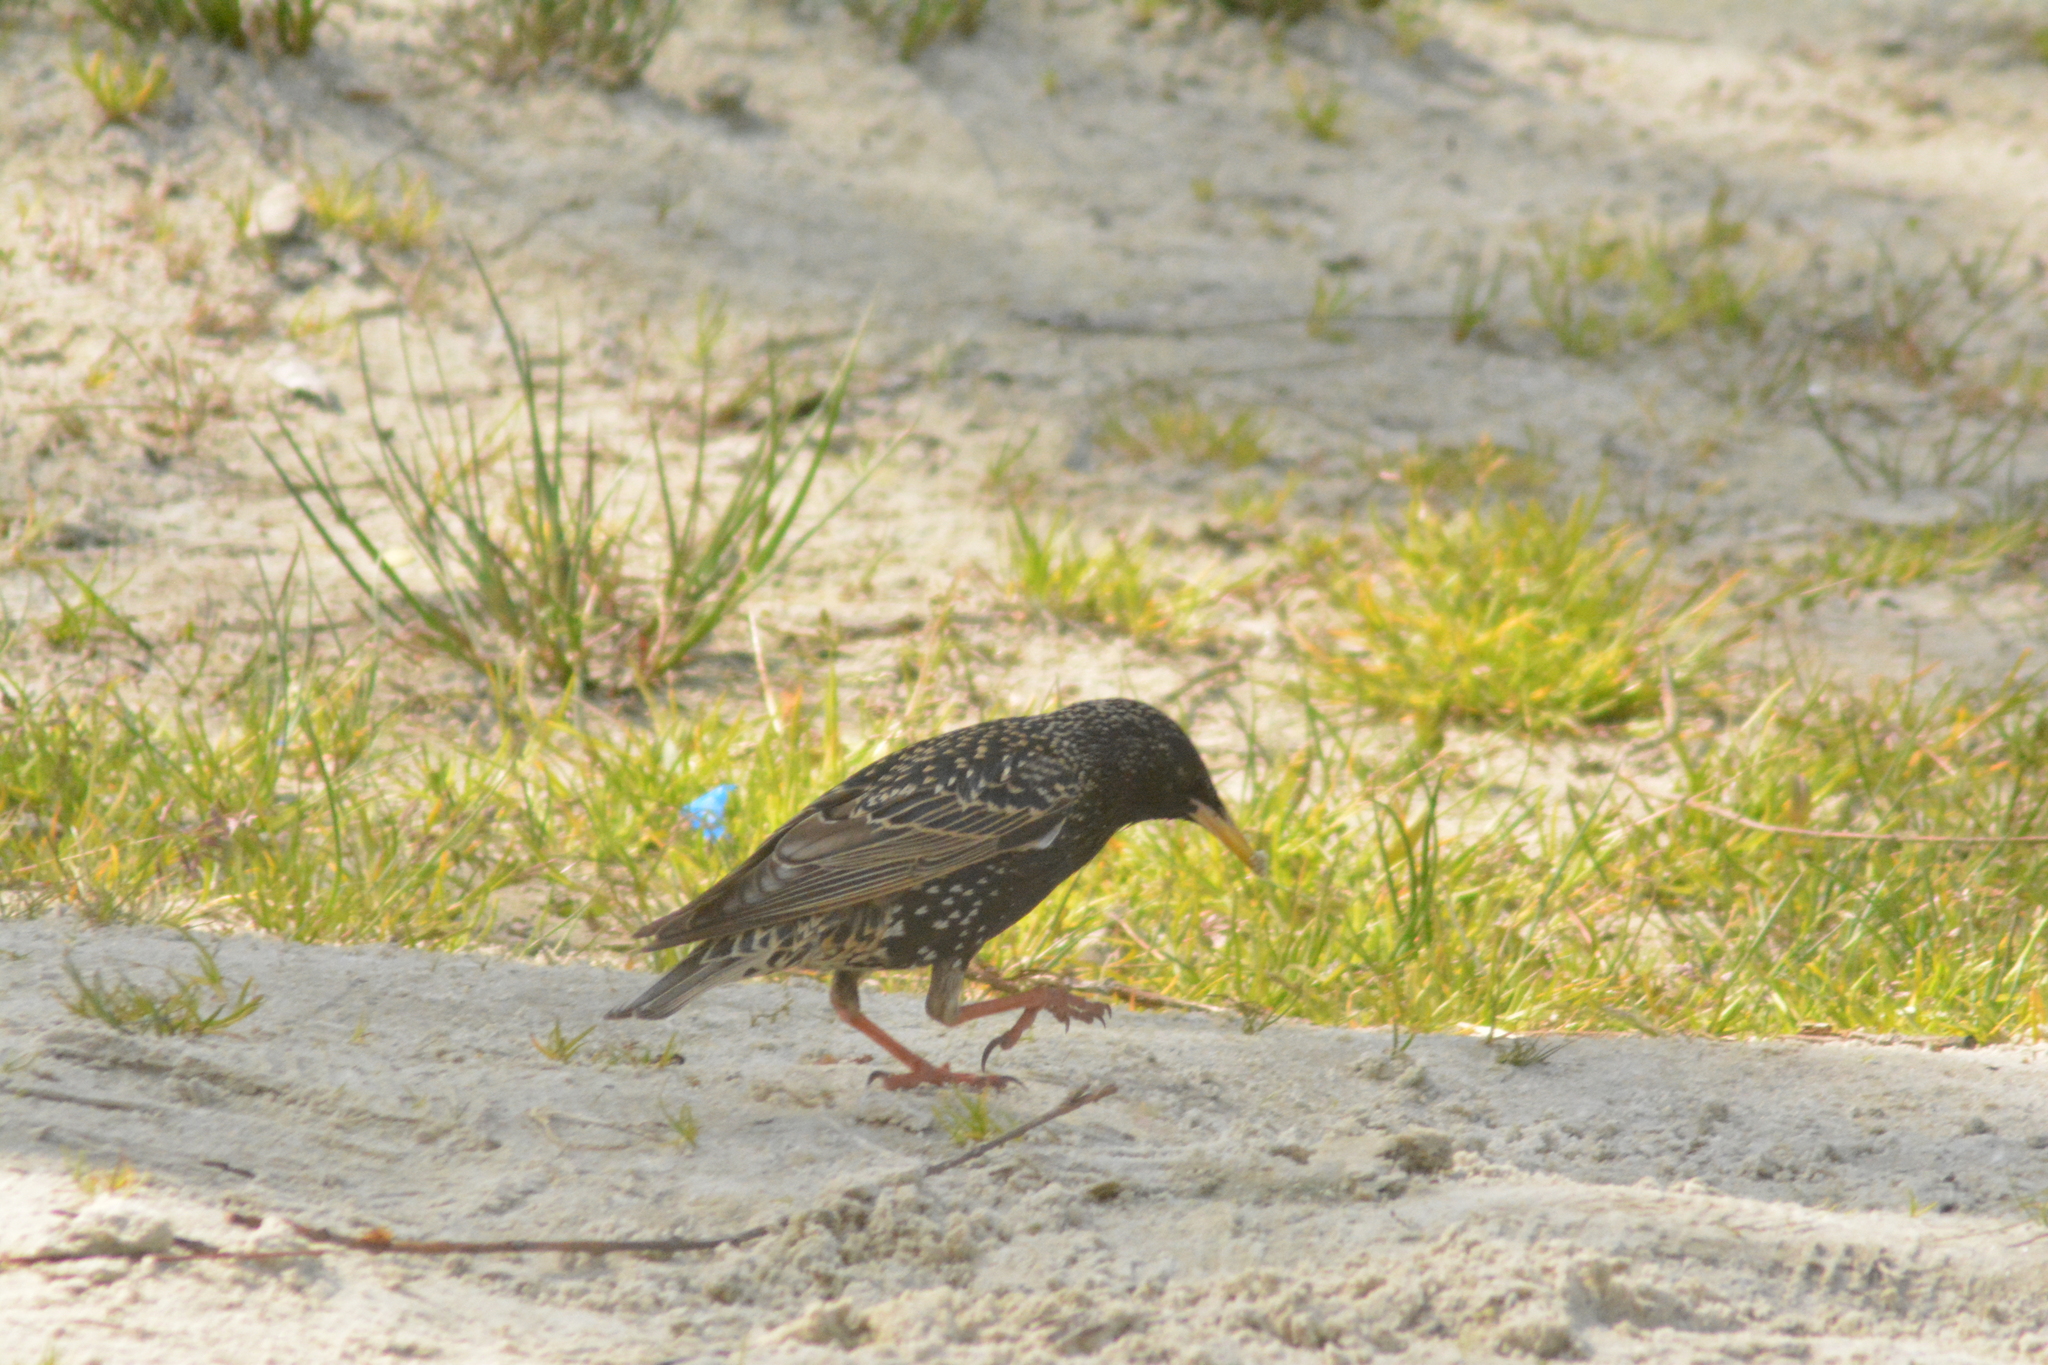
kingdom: Animalia
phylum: Chordata
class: Aves
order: Passeriformes
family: Sturnidae
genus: Sturnus
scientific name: Sturnus vulgaris
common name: Common starling
